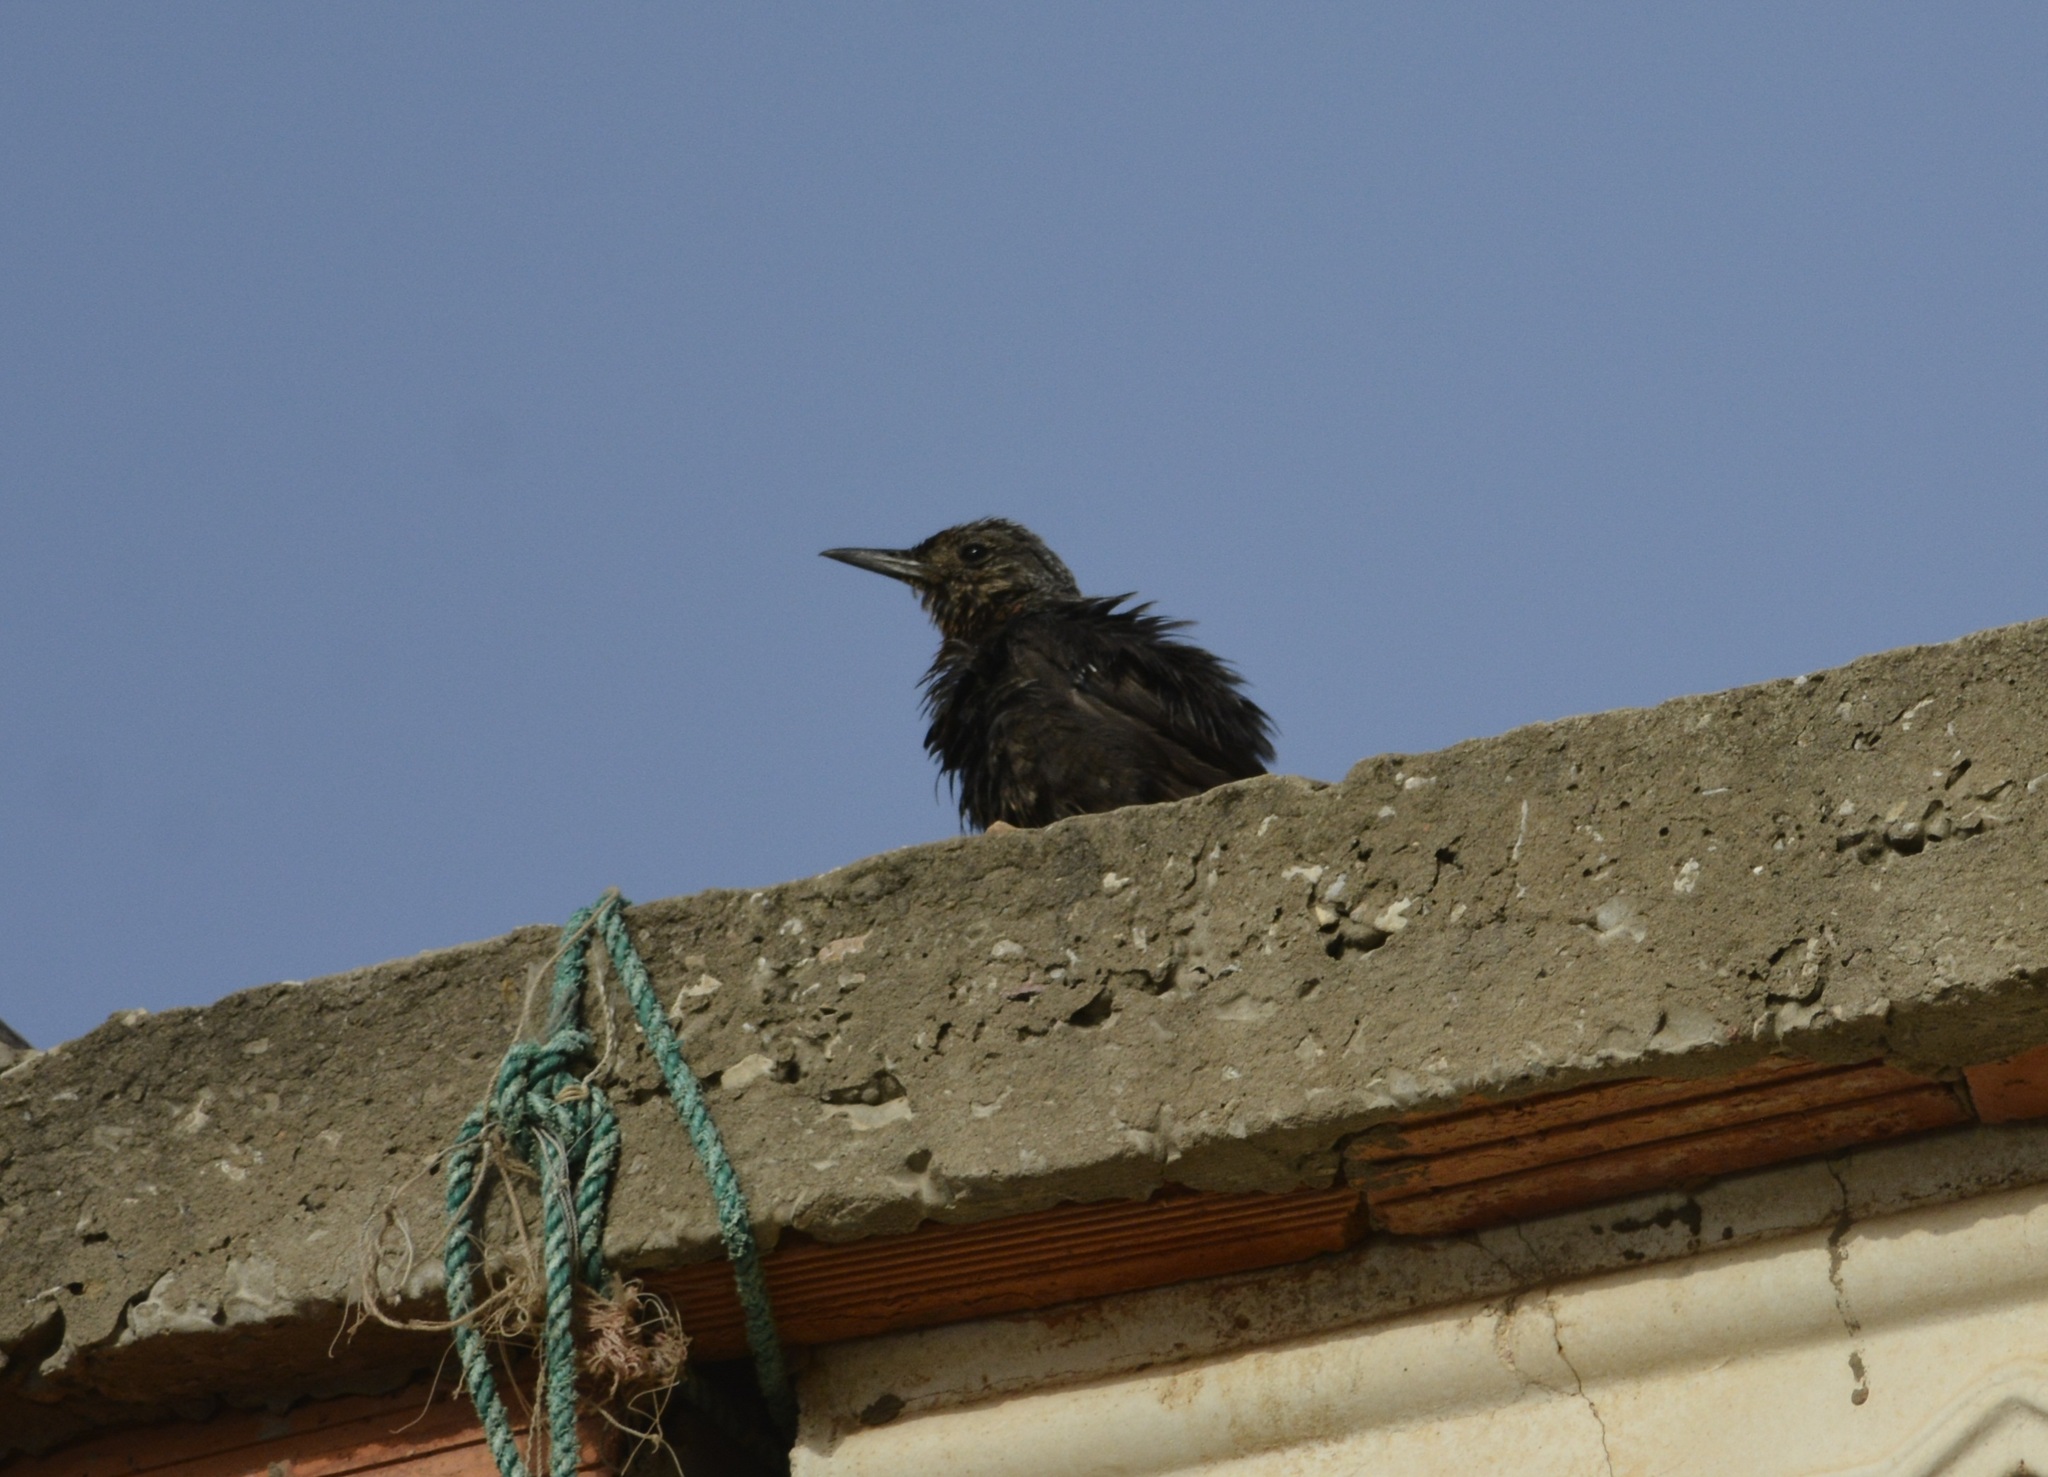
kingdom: Animalia
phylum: Chordata
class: Aves
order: Passeriformes
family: Muscicapidae
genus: Monticola
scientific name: Monticola solitarius
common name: Blue rock thrush
